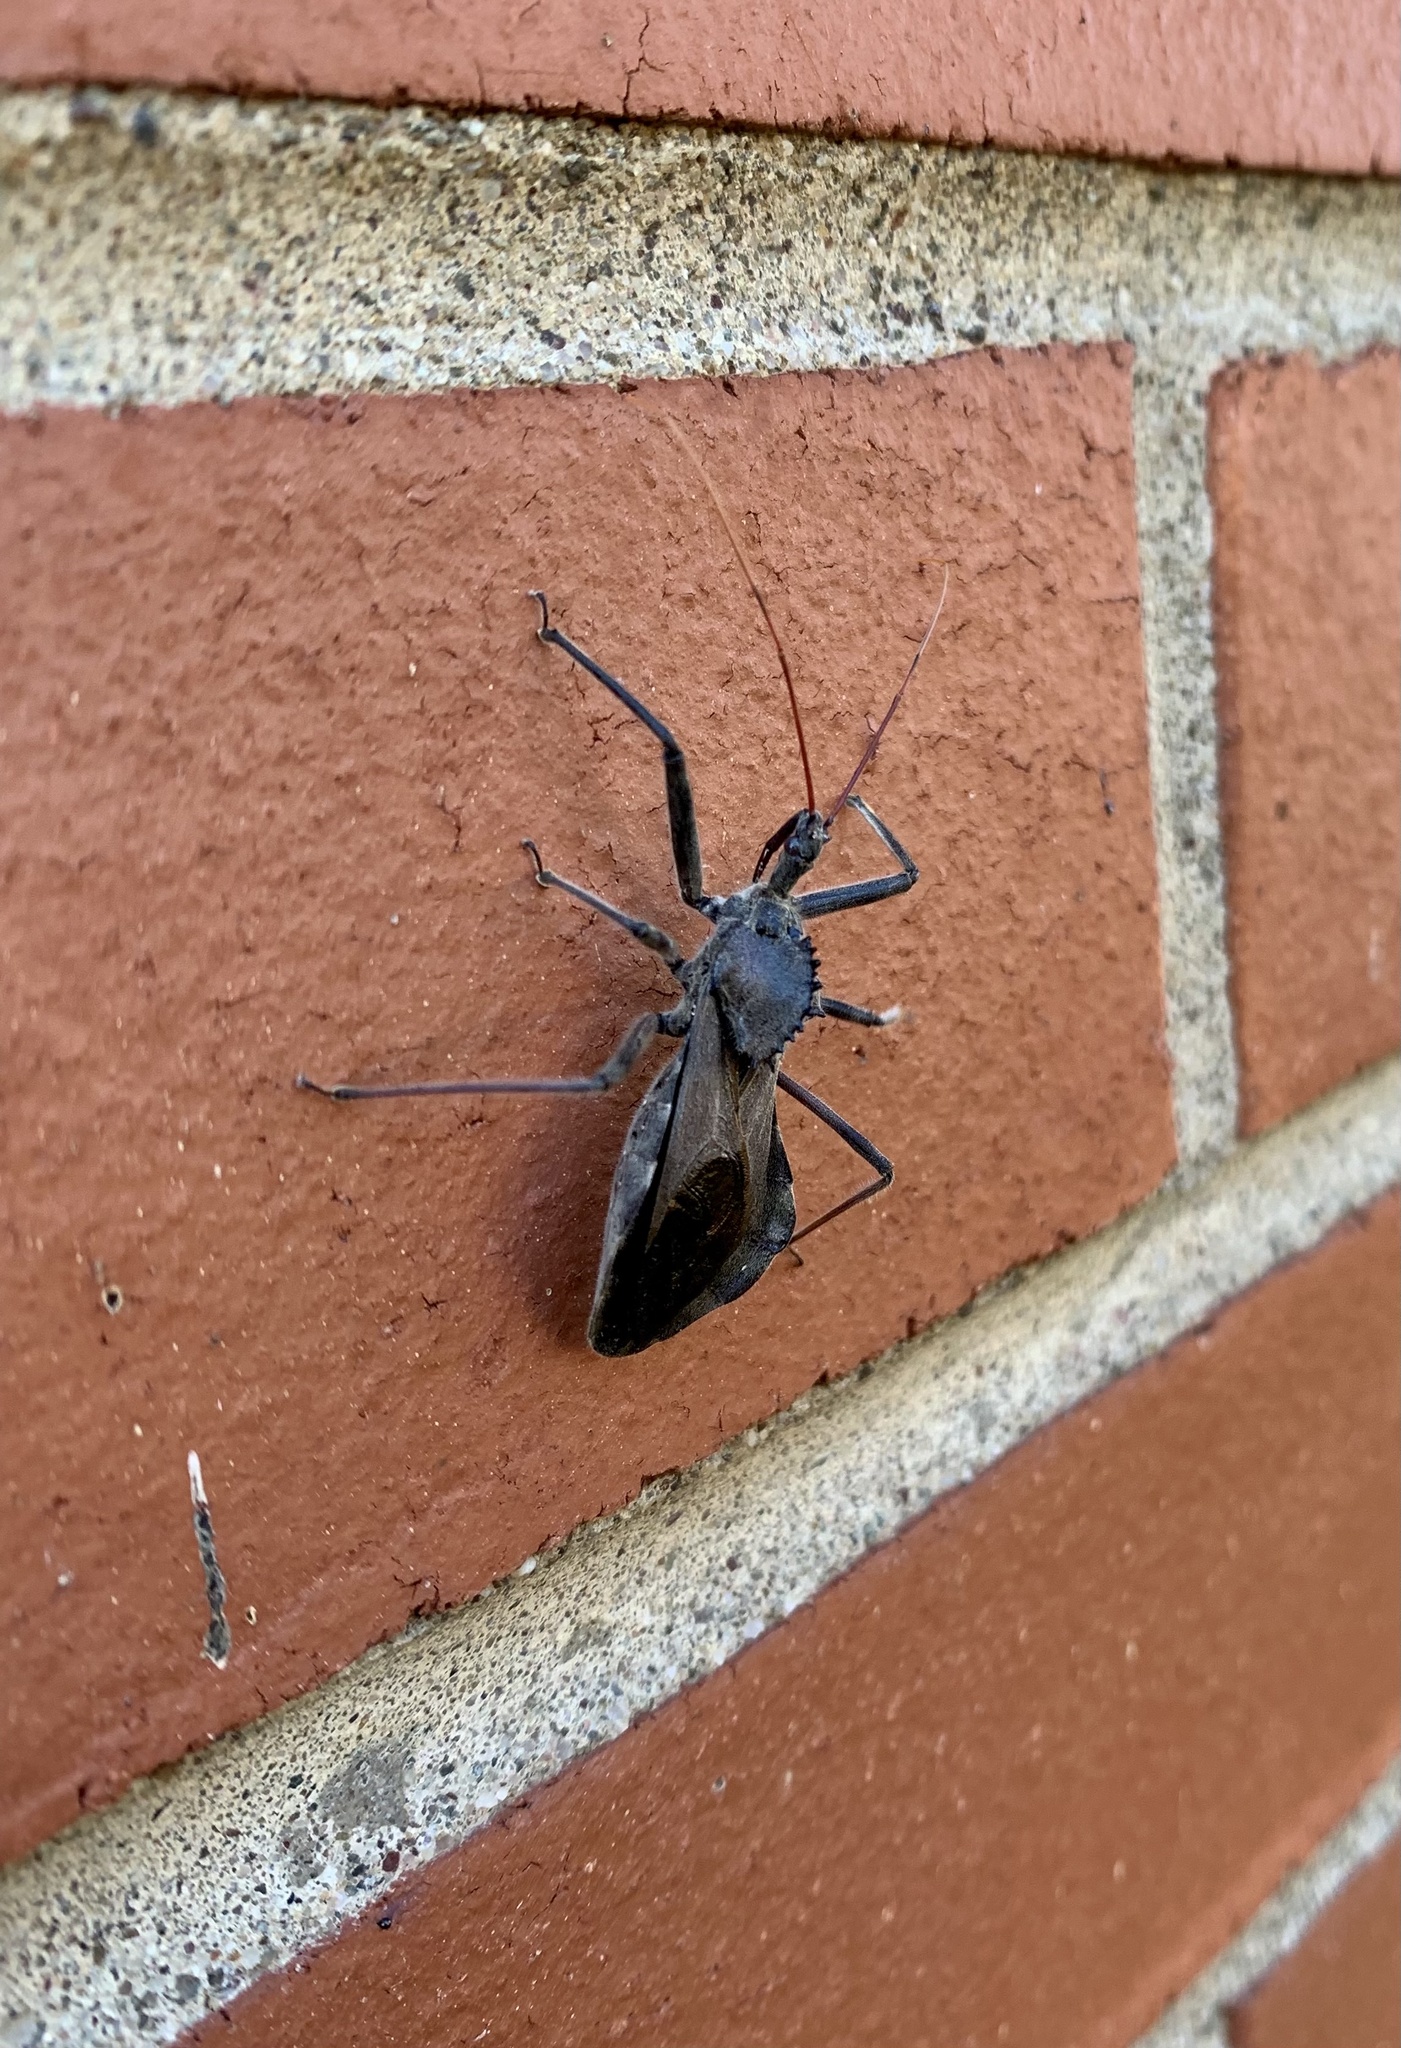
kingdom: Animalia
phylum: Arthropoda
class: Insecta
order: Hemiptera
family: Reduviidae
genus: Arilus
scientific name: Arilus cristatus
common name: North american wheel bug
